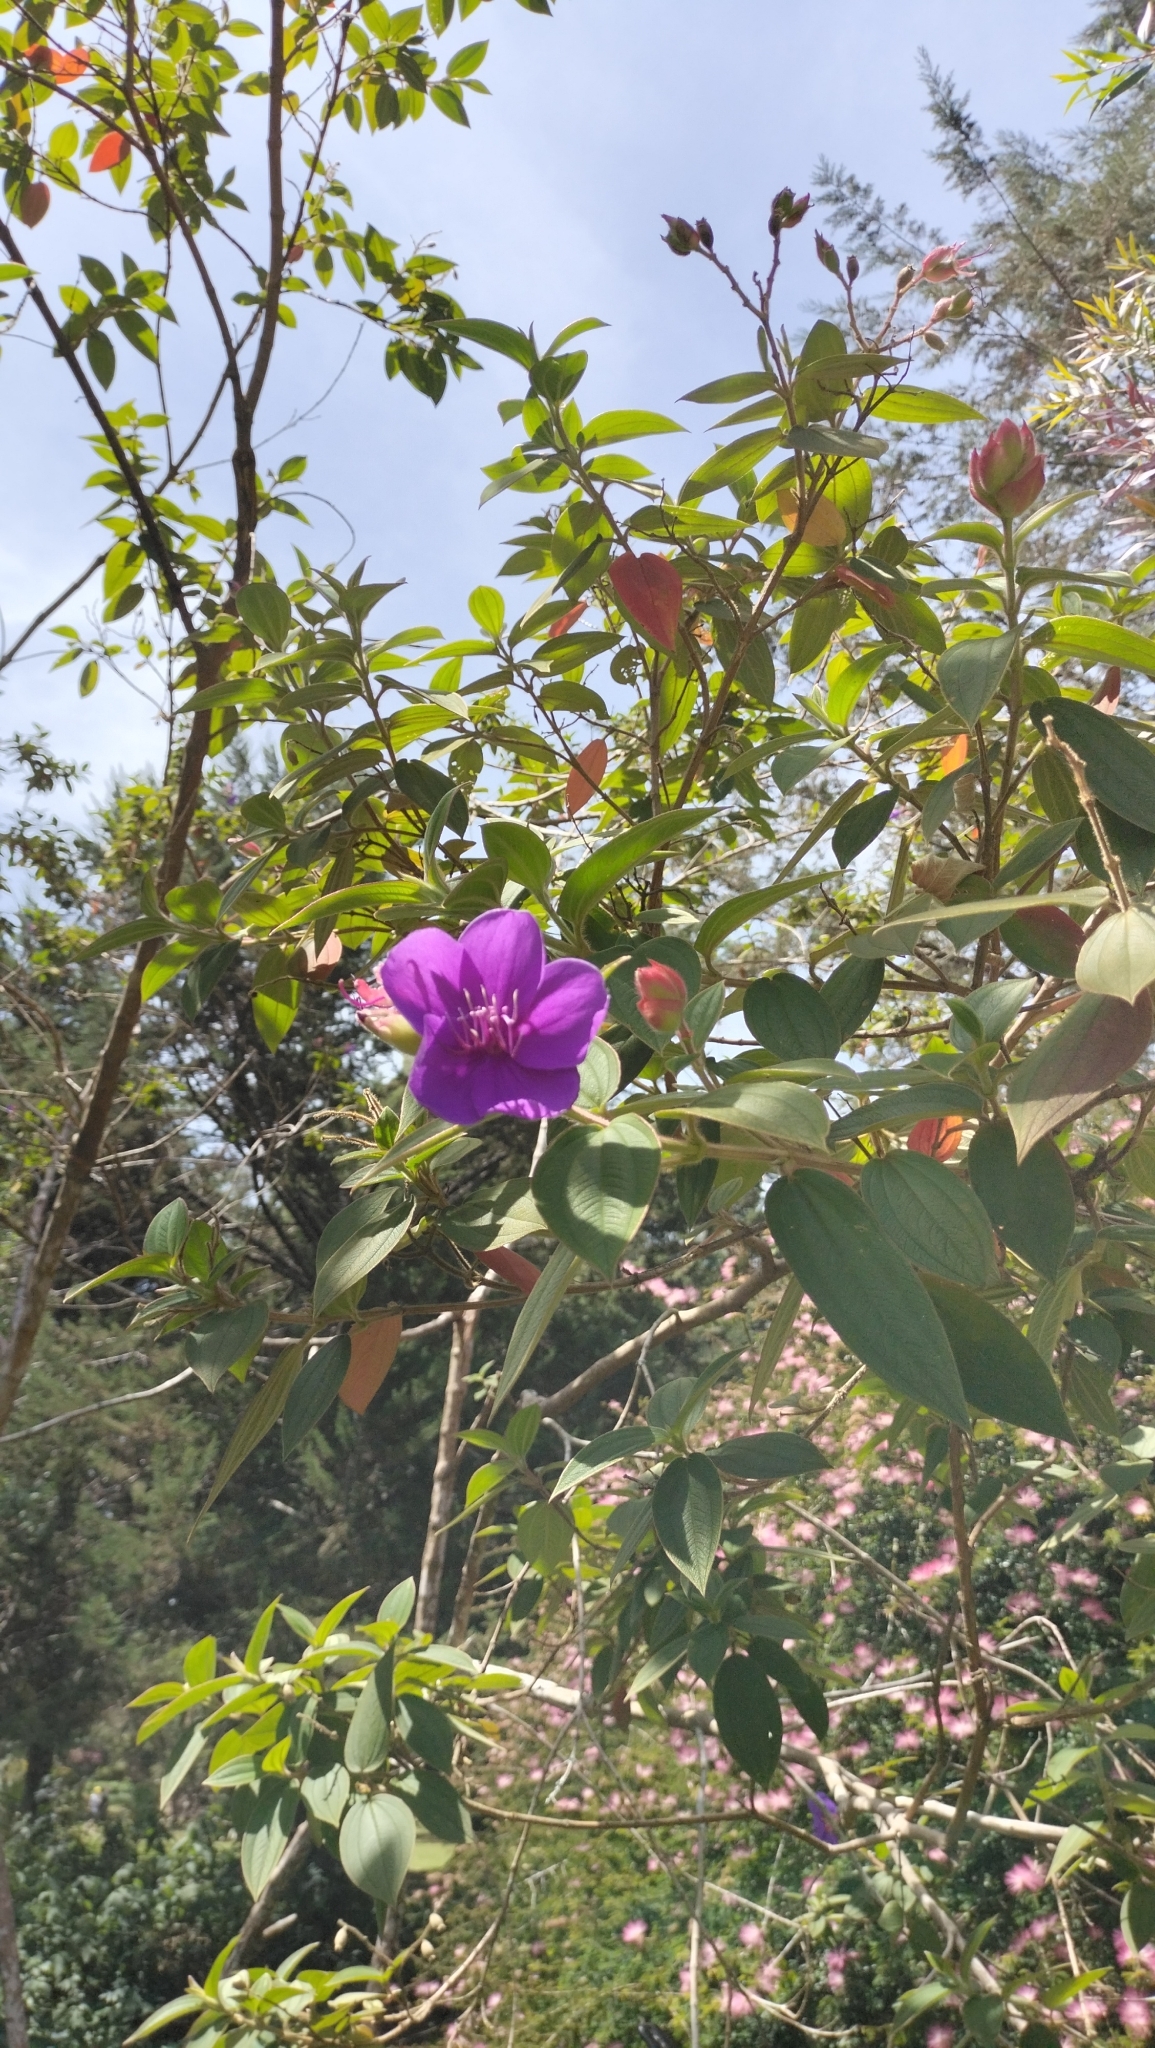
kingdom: Plantae
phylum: Tracheophyta
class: Magnoliopsida
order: Myrtales
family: Melastomataceae
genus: Pleroma
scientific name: Pleroma urvilleanum
